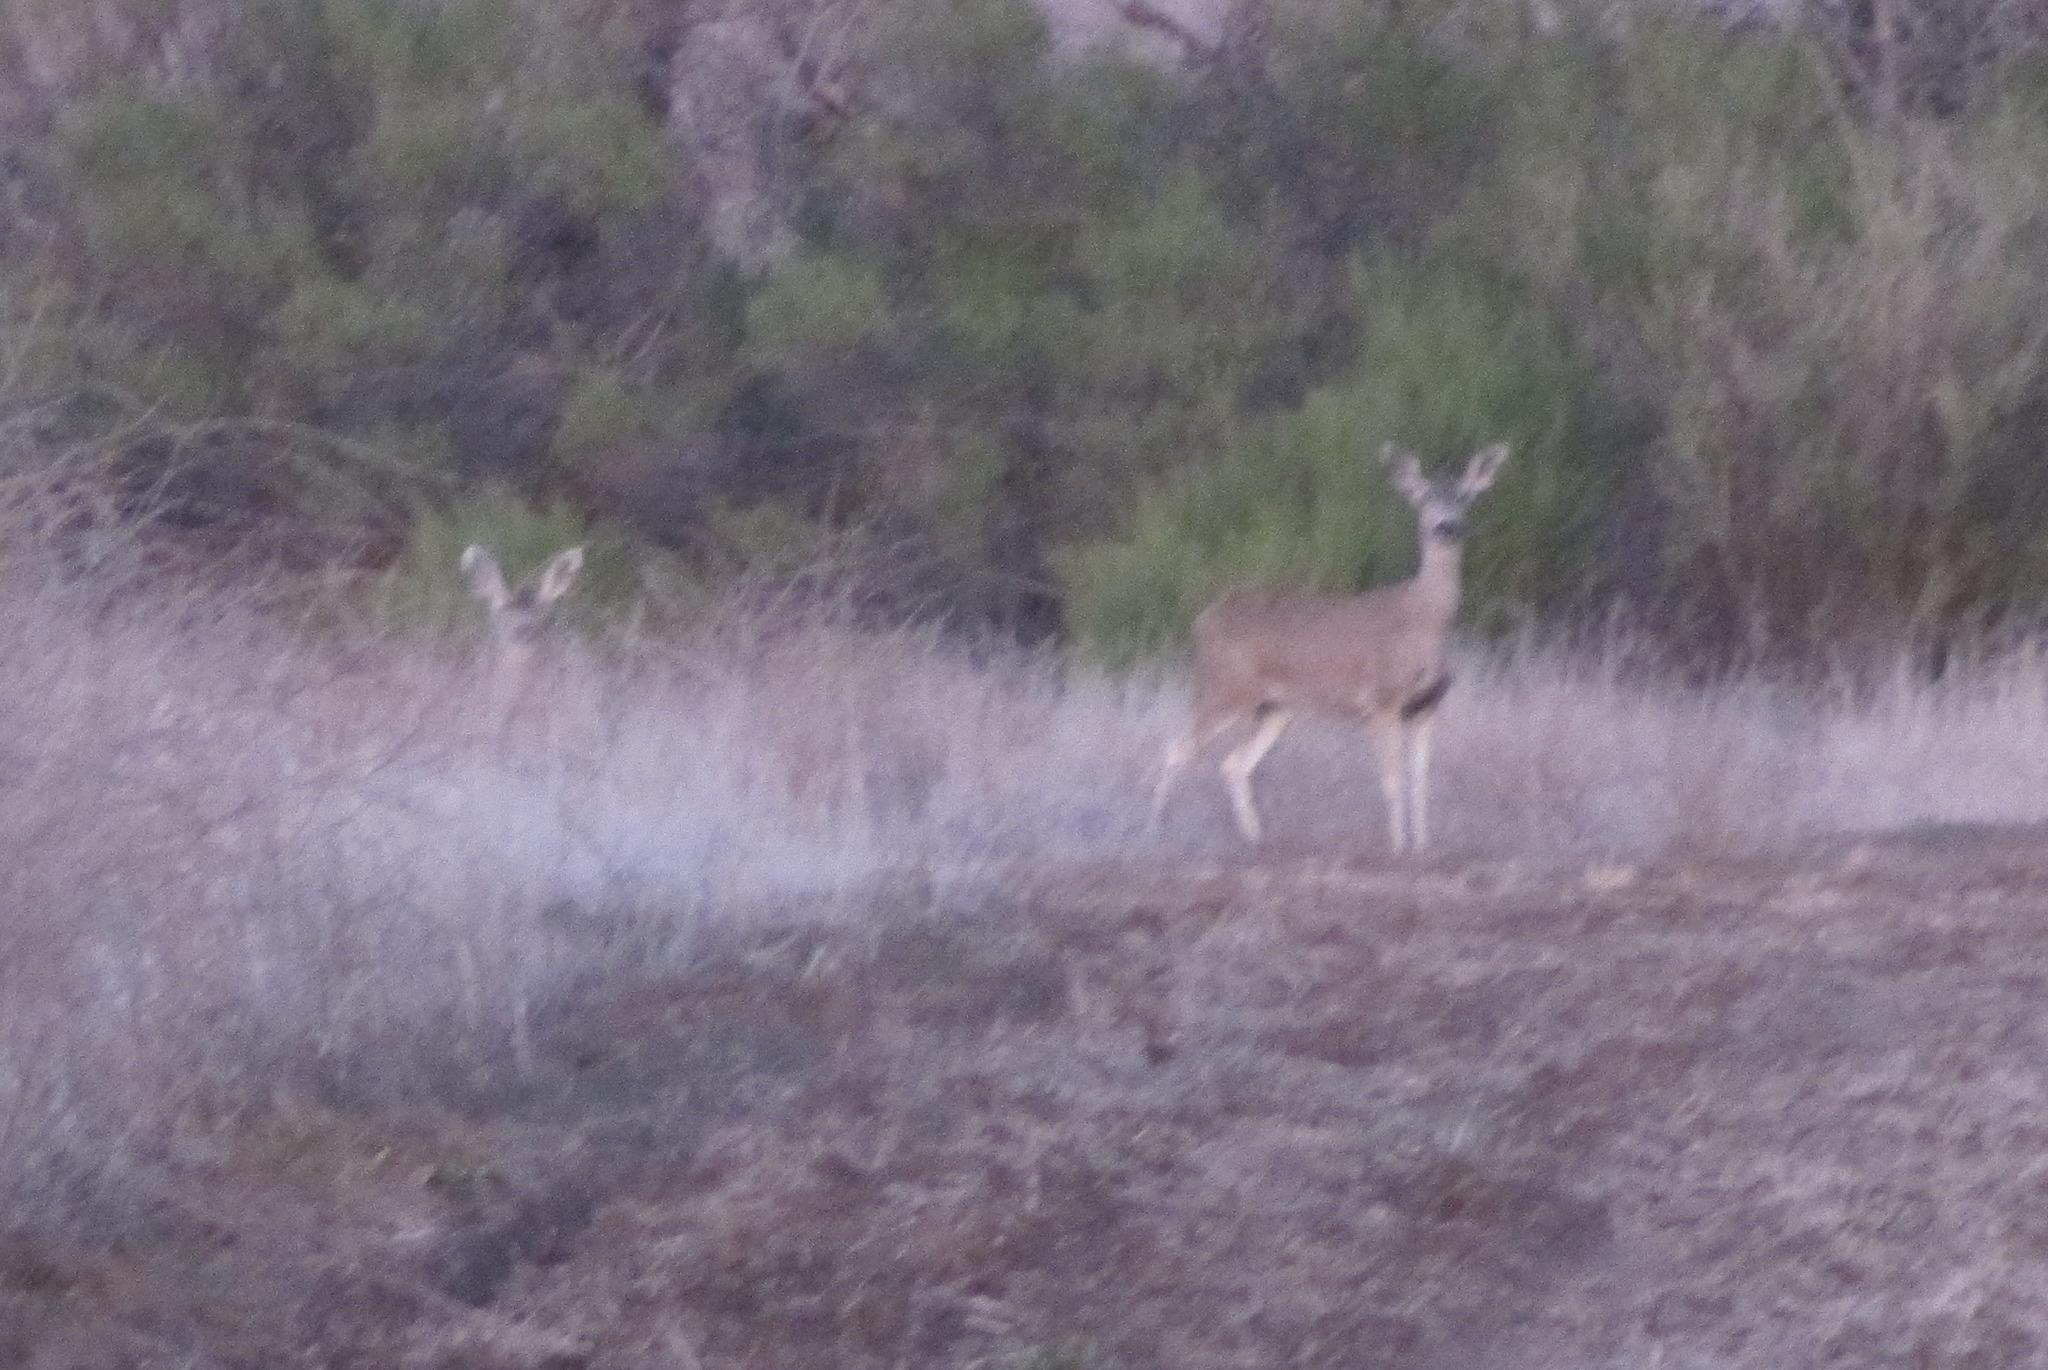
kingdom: Animalia
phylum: Chordata
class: Mammalia
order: Artiodactyla
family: Cervidae
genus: Odocoileus
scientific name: Odocoileus hemionus
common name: Mule deer
